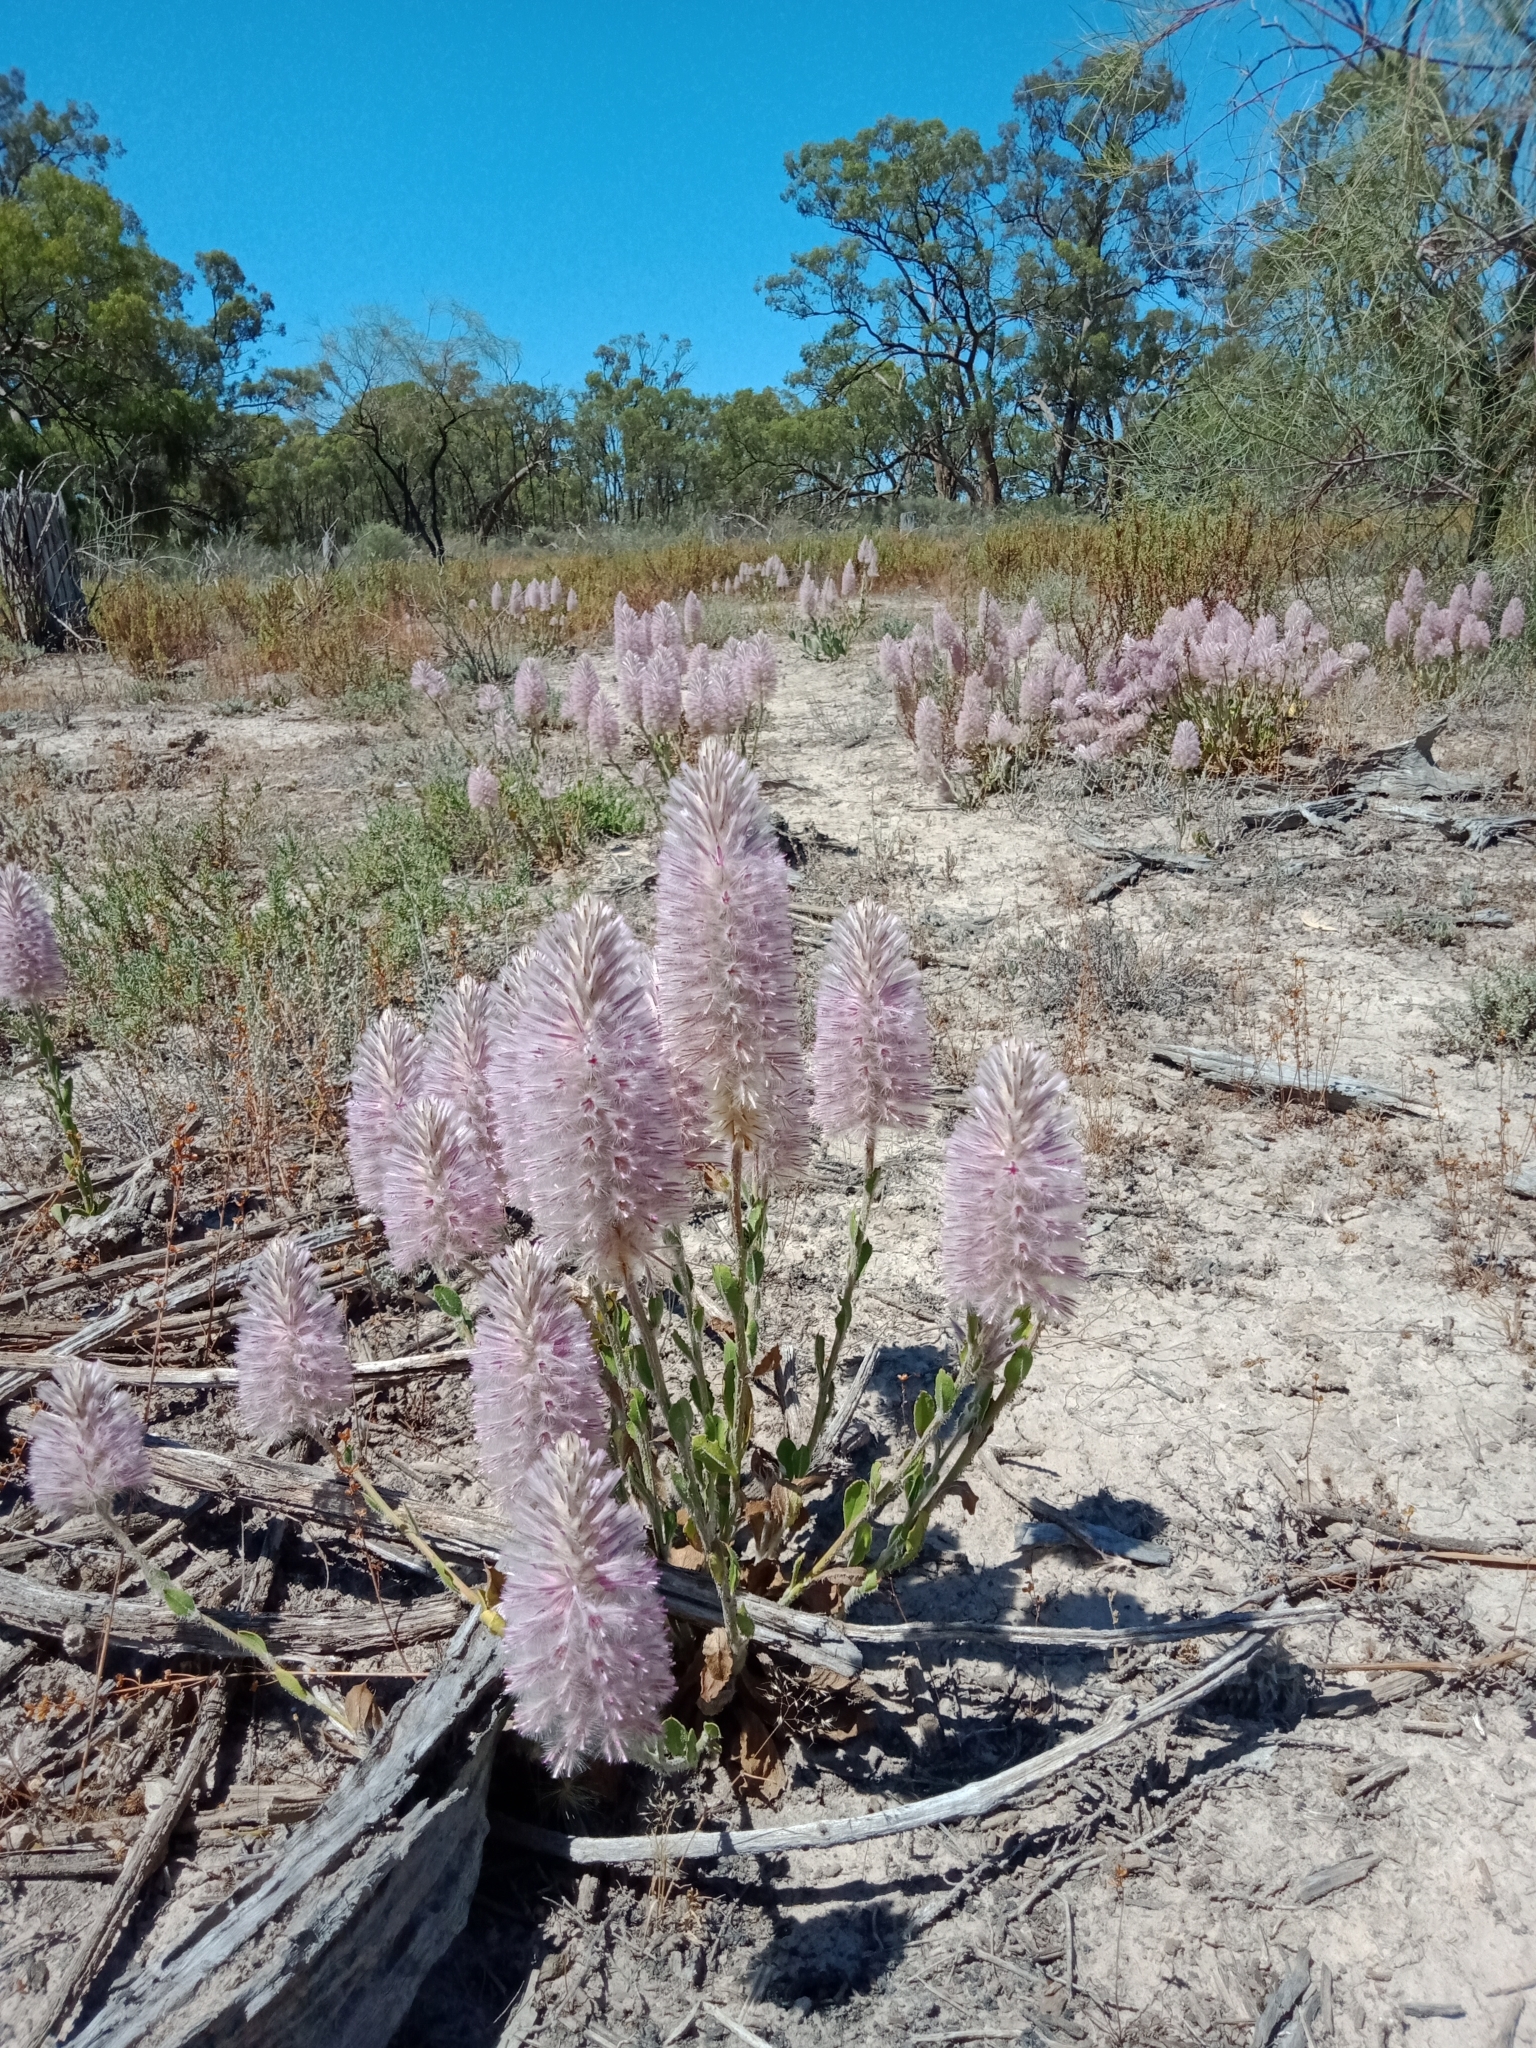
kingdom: Plantae
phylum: Tracheophyta
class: Magnoliopsida
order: Caryophyllales
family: Amaranthaceae
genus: Ptilotus
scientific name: Ptilotus exaltatus
